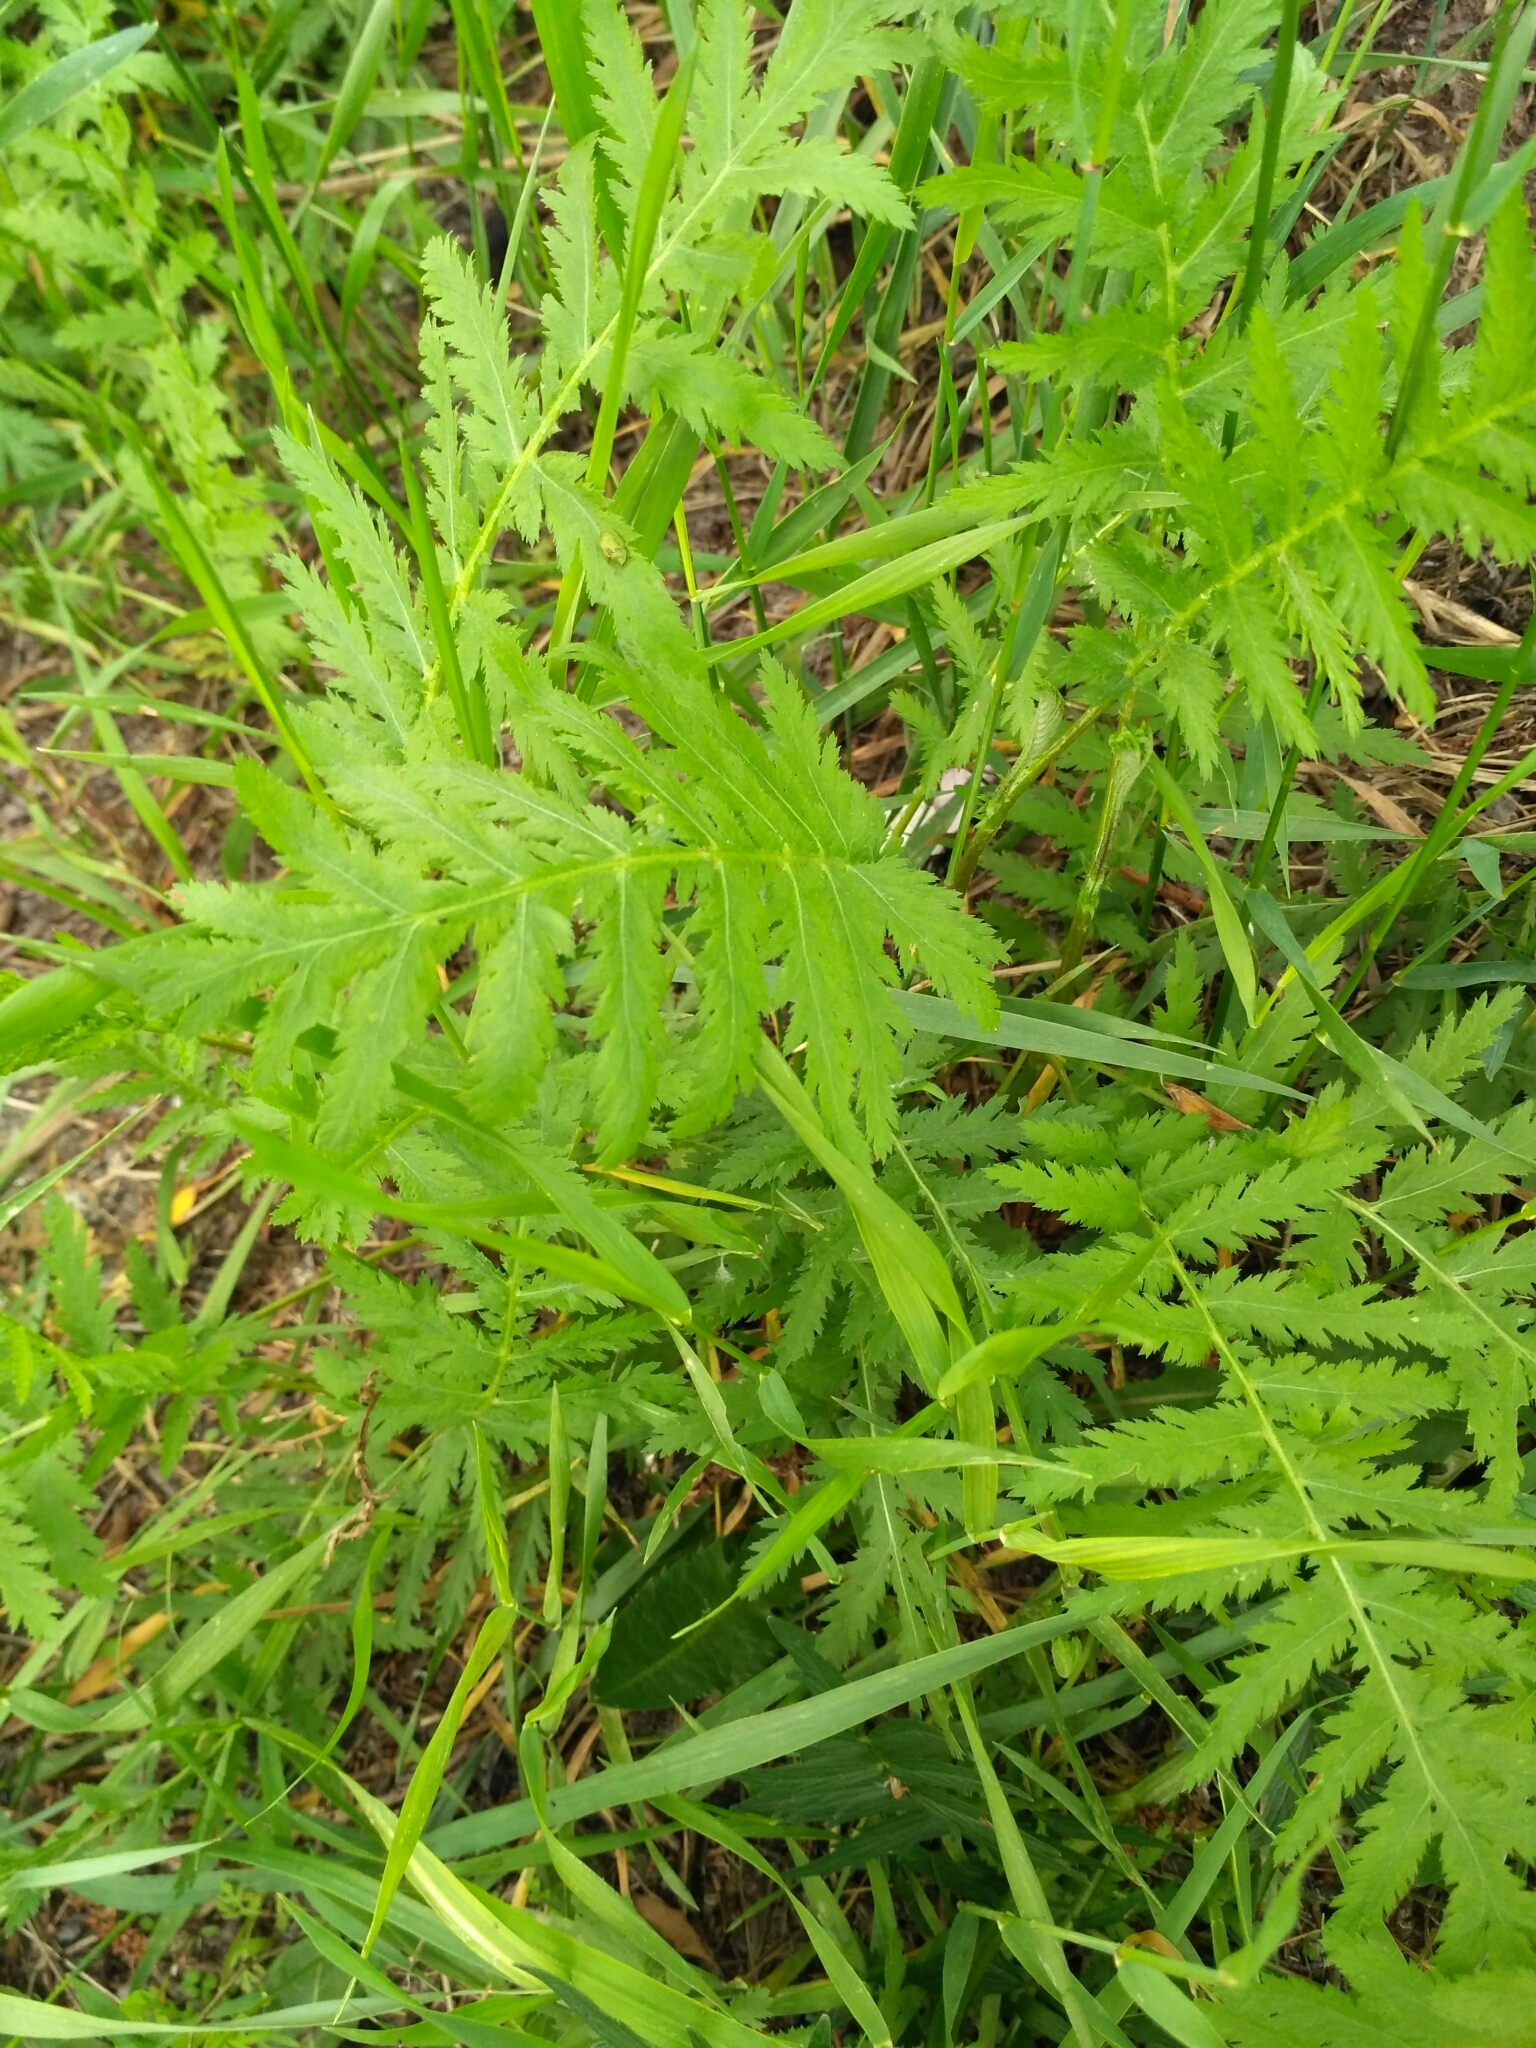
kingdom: Plantae
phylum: Tracheophyta
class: Magnoliopsida
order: Asterales
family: Asteraceae
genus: Tanacetum
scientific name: Tanacetum vulgare
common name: Common tansy
